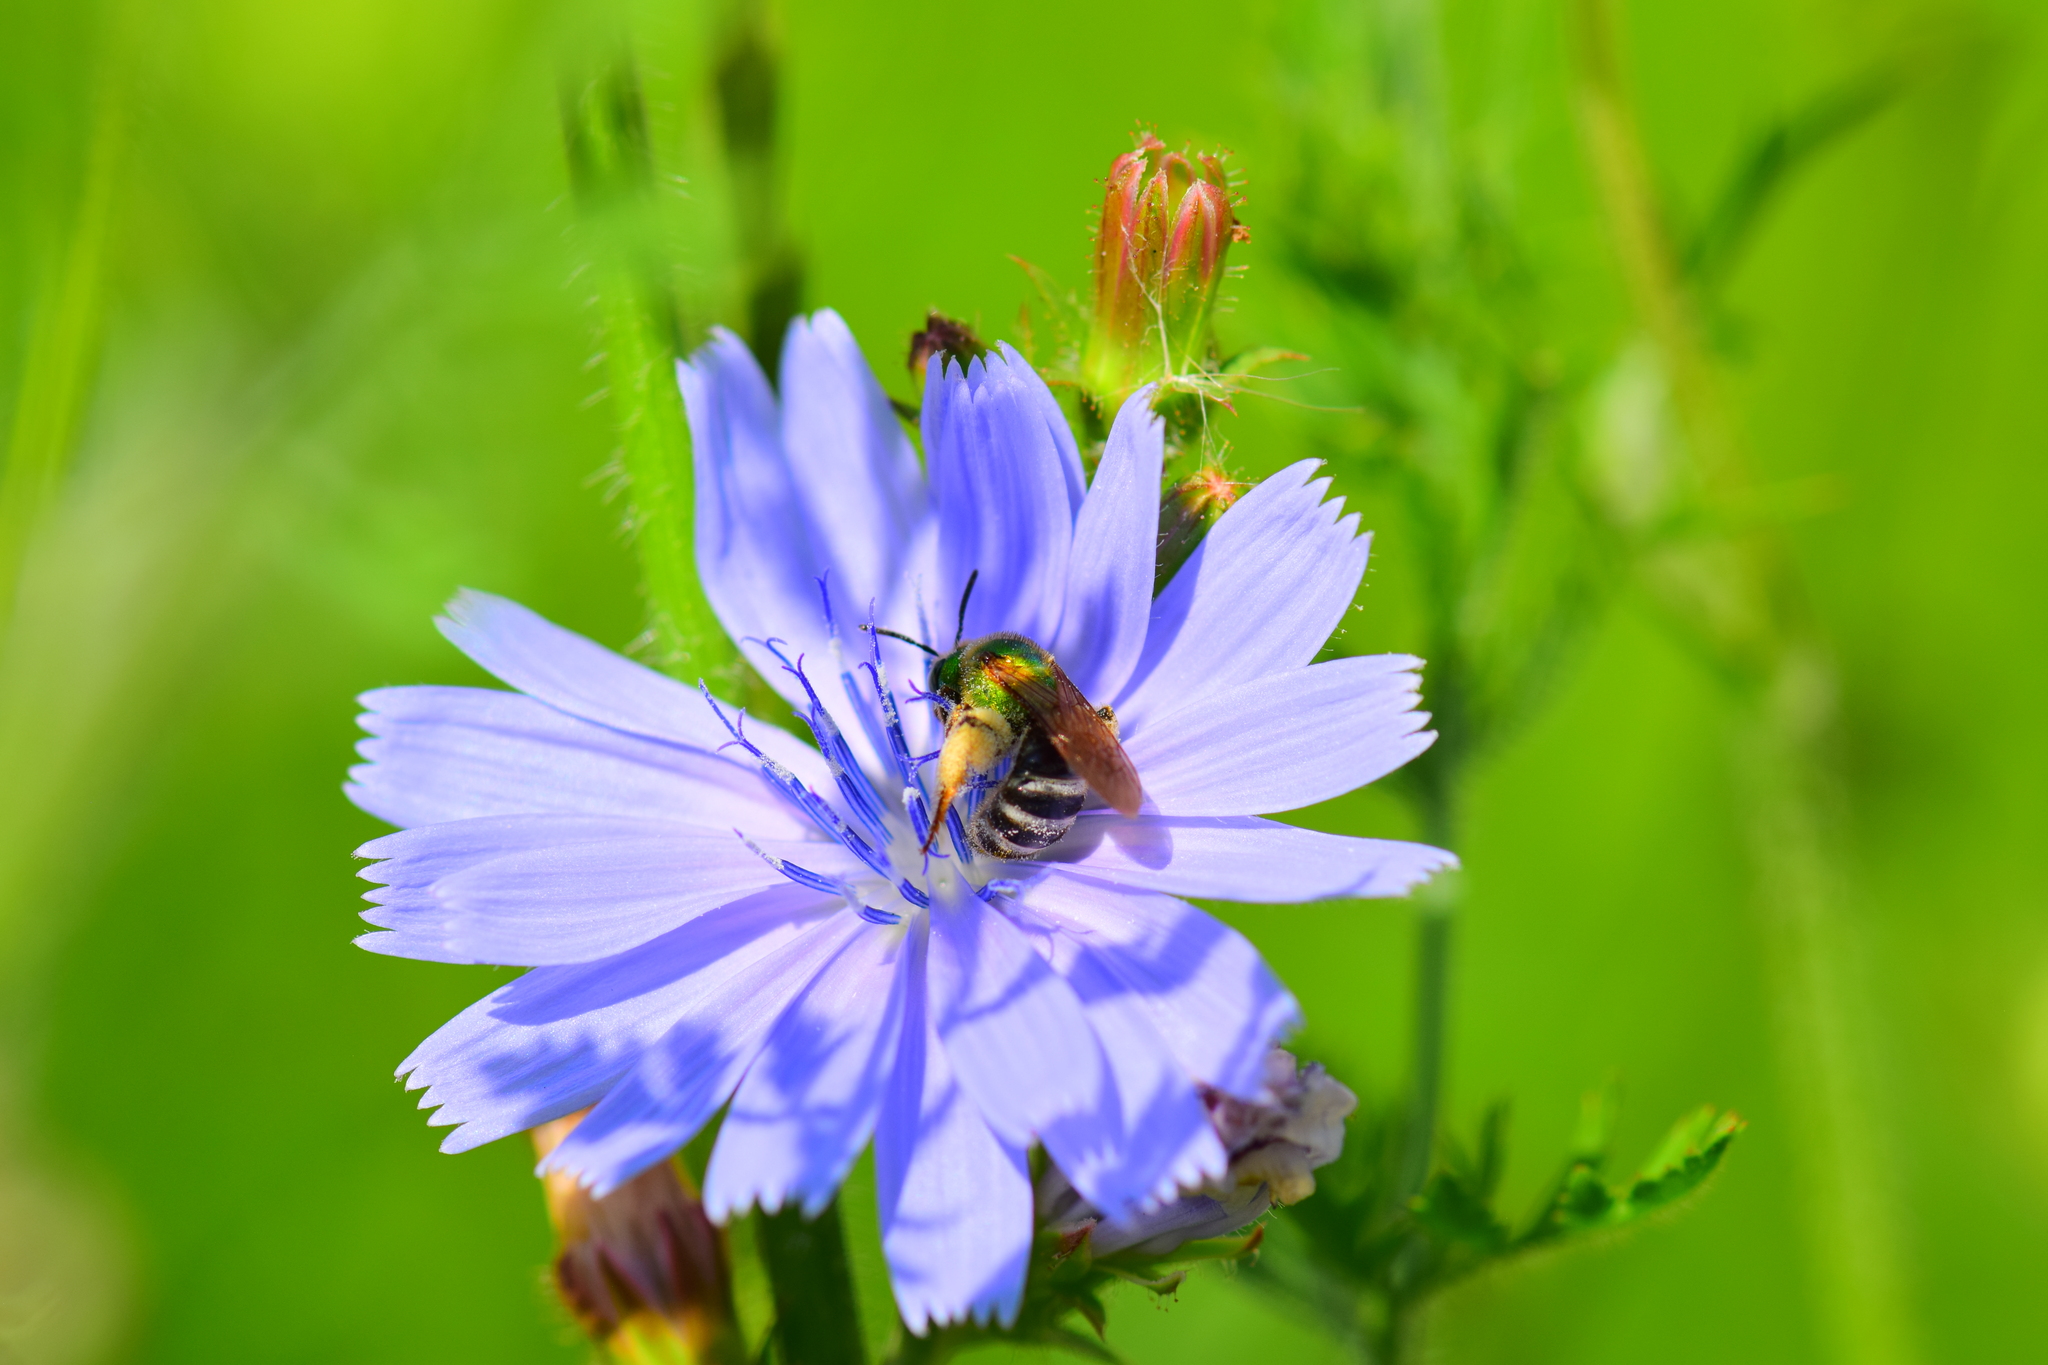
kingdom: Animalia
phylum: Arthropoda
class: Insecta
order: Hymenoptera
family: Halictidae
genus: Agapostemon
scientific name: Agapostemon virescens
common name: Bicolored striped sweat bee
